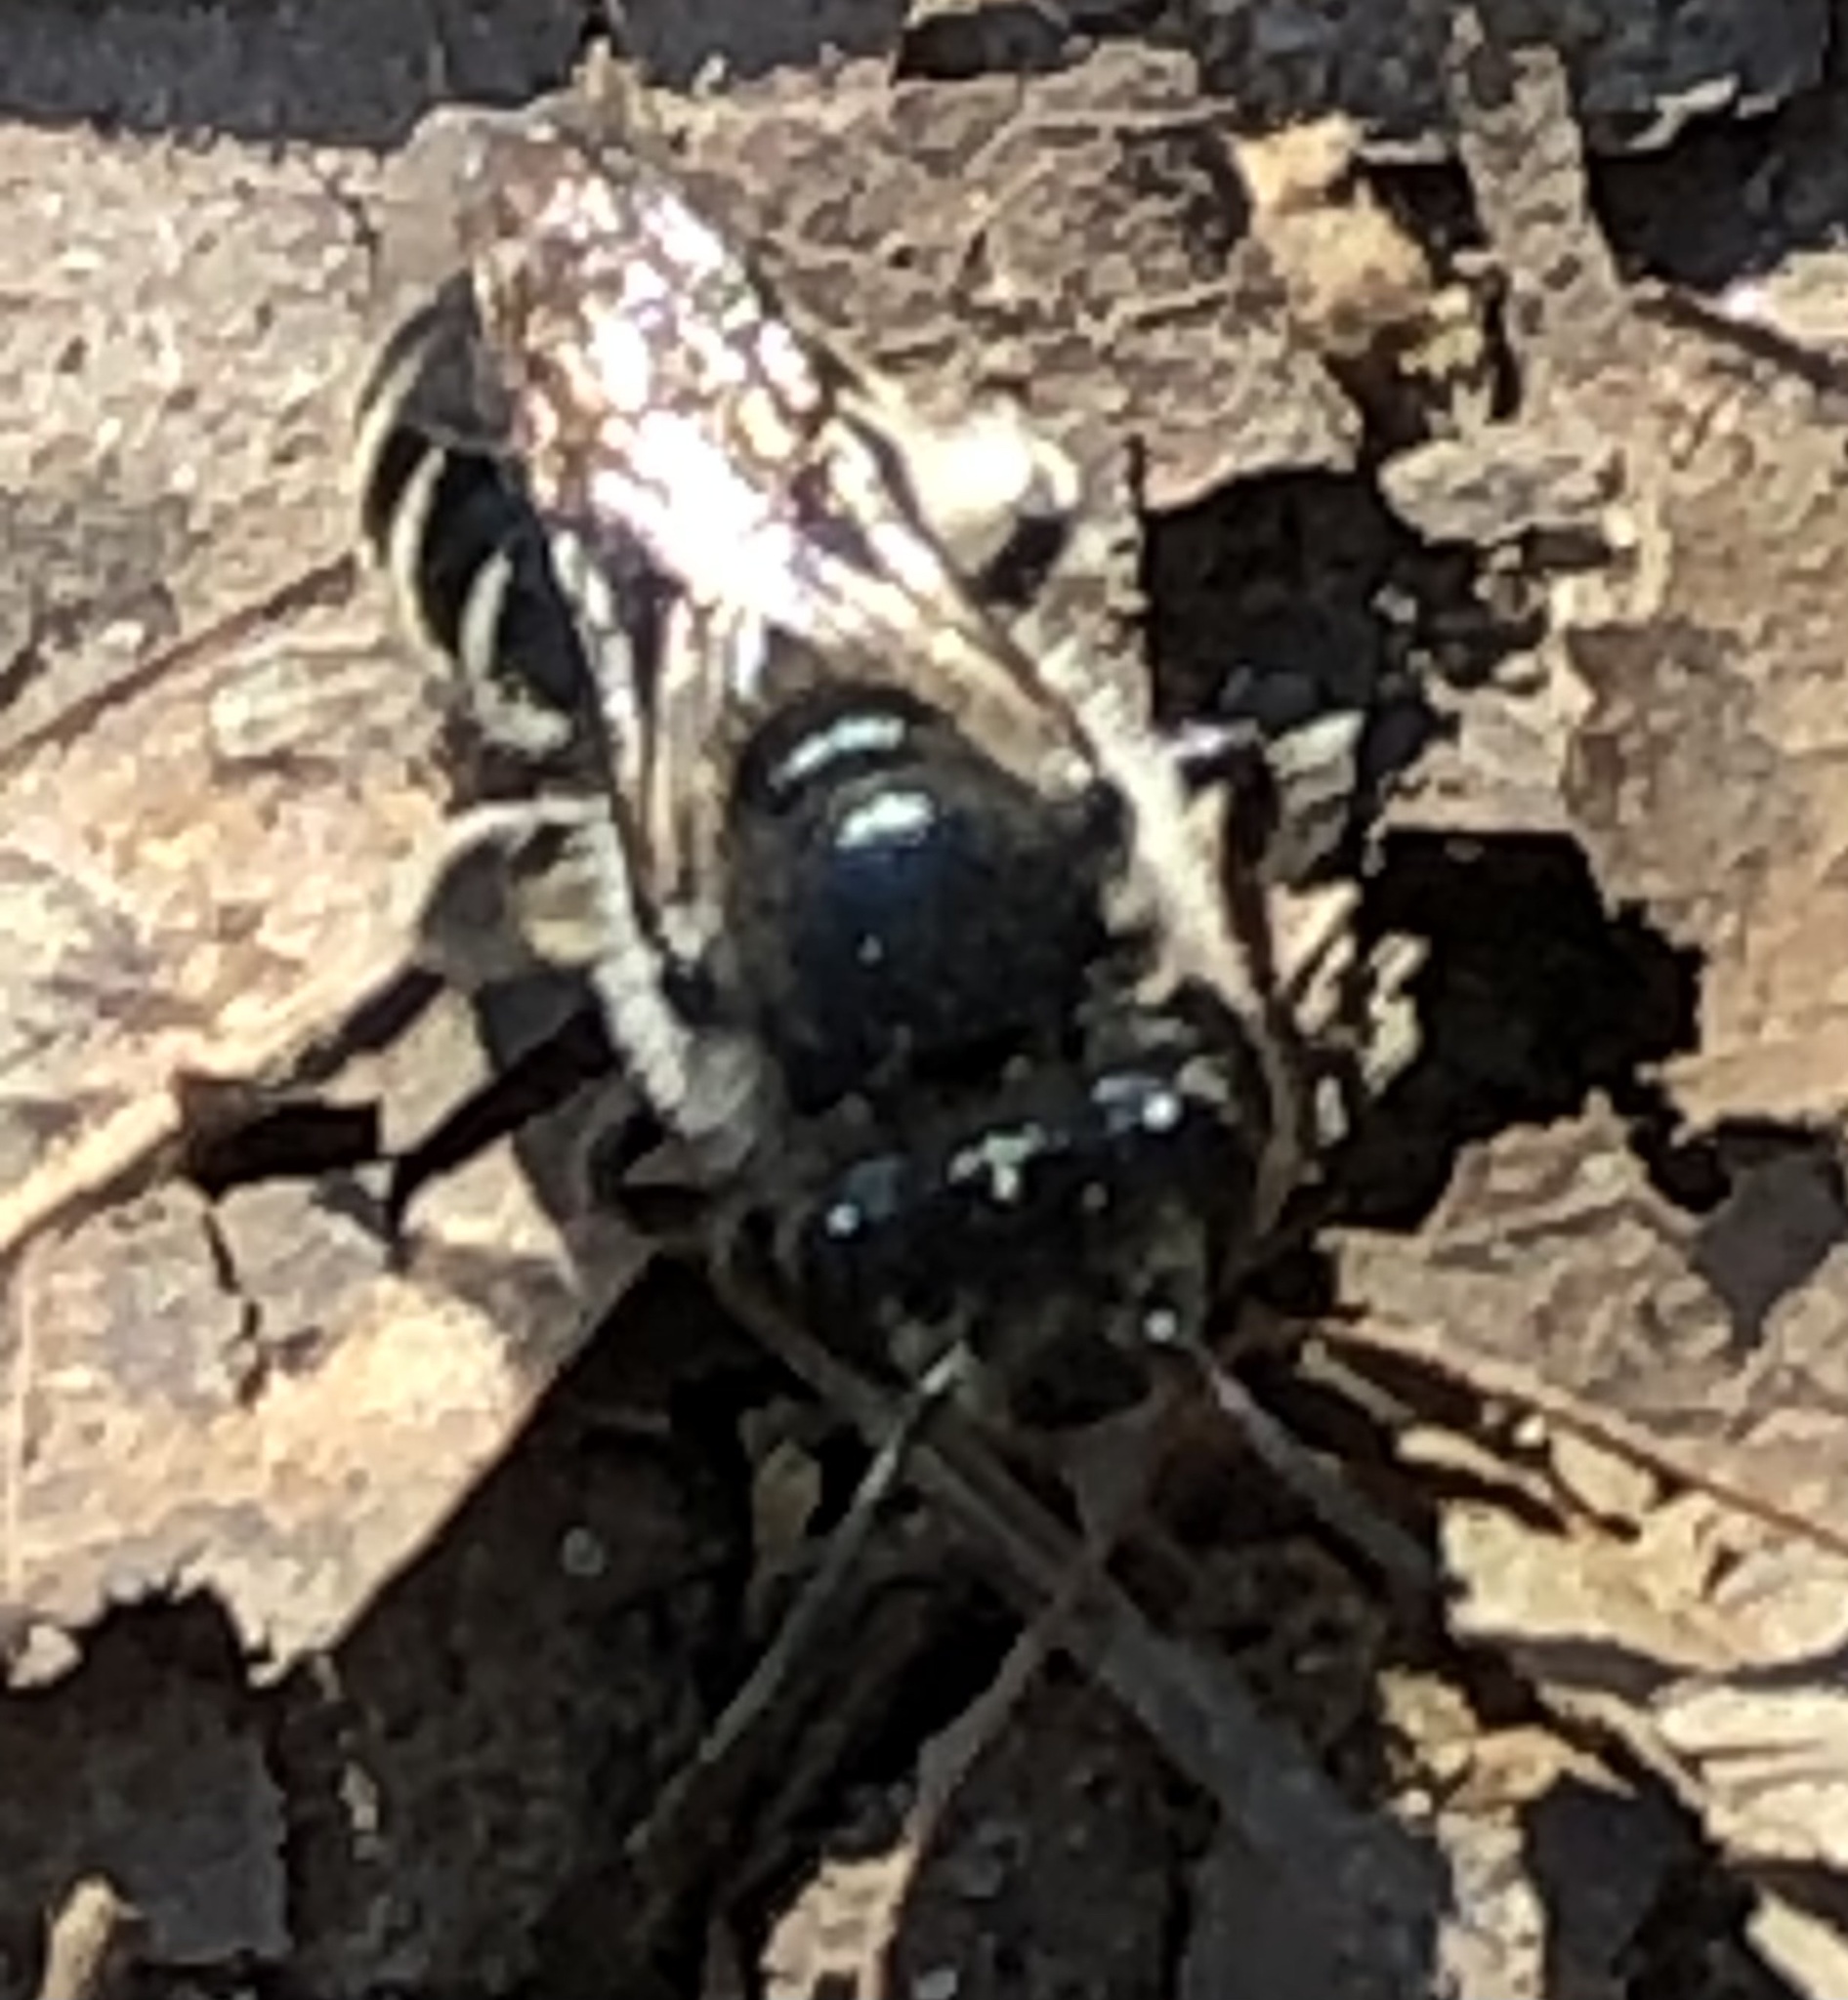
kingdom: Animalia
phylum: Arthropoda
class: Insecta
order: Hymenoptera
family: Colletidae
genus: Colletes
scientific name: Colletes inaequalis
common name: Unequal cellophane bee
